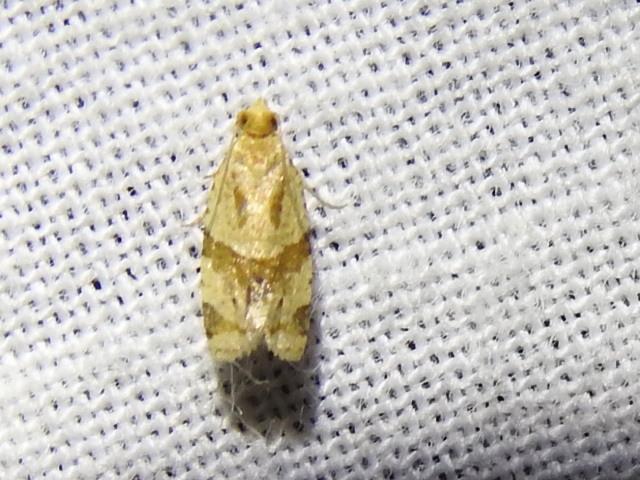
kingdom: Animalia
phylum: Arthropoda
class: Insecta
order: Lepidoptera
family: Tortricidae
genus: Clepsis
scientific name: Clepsis peritana
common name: Garden tortrix
